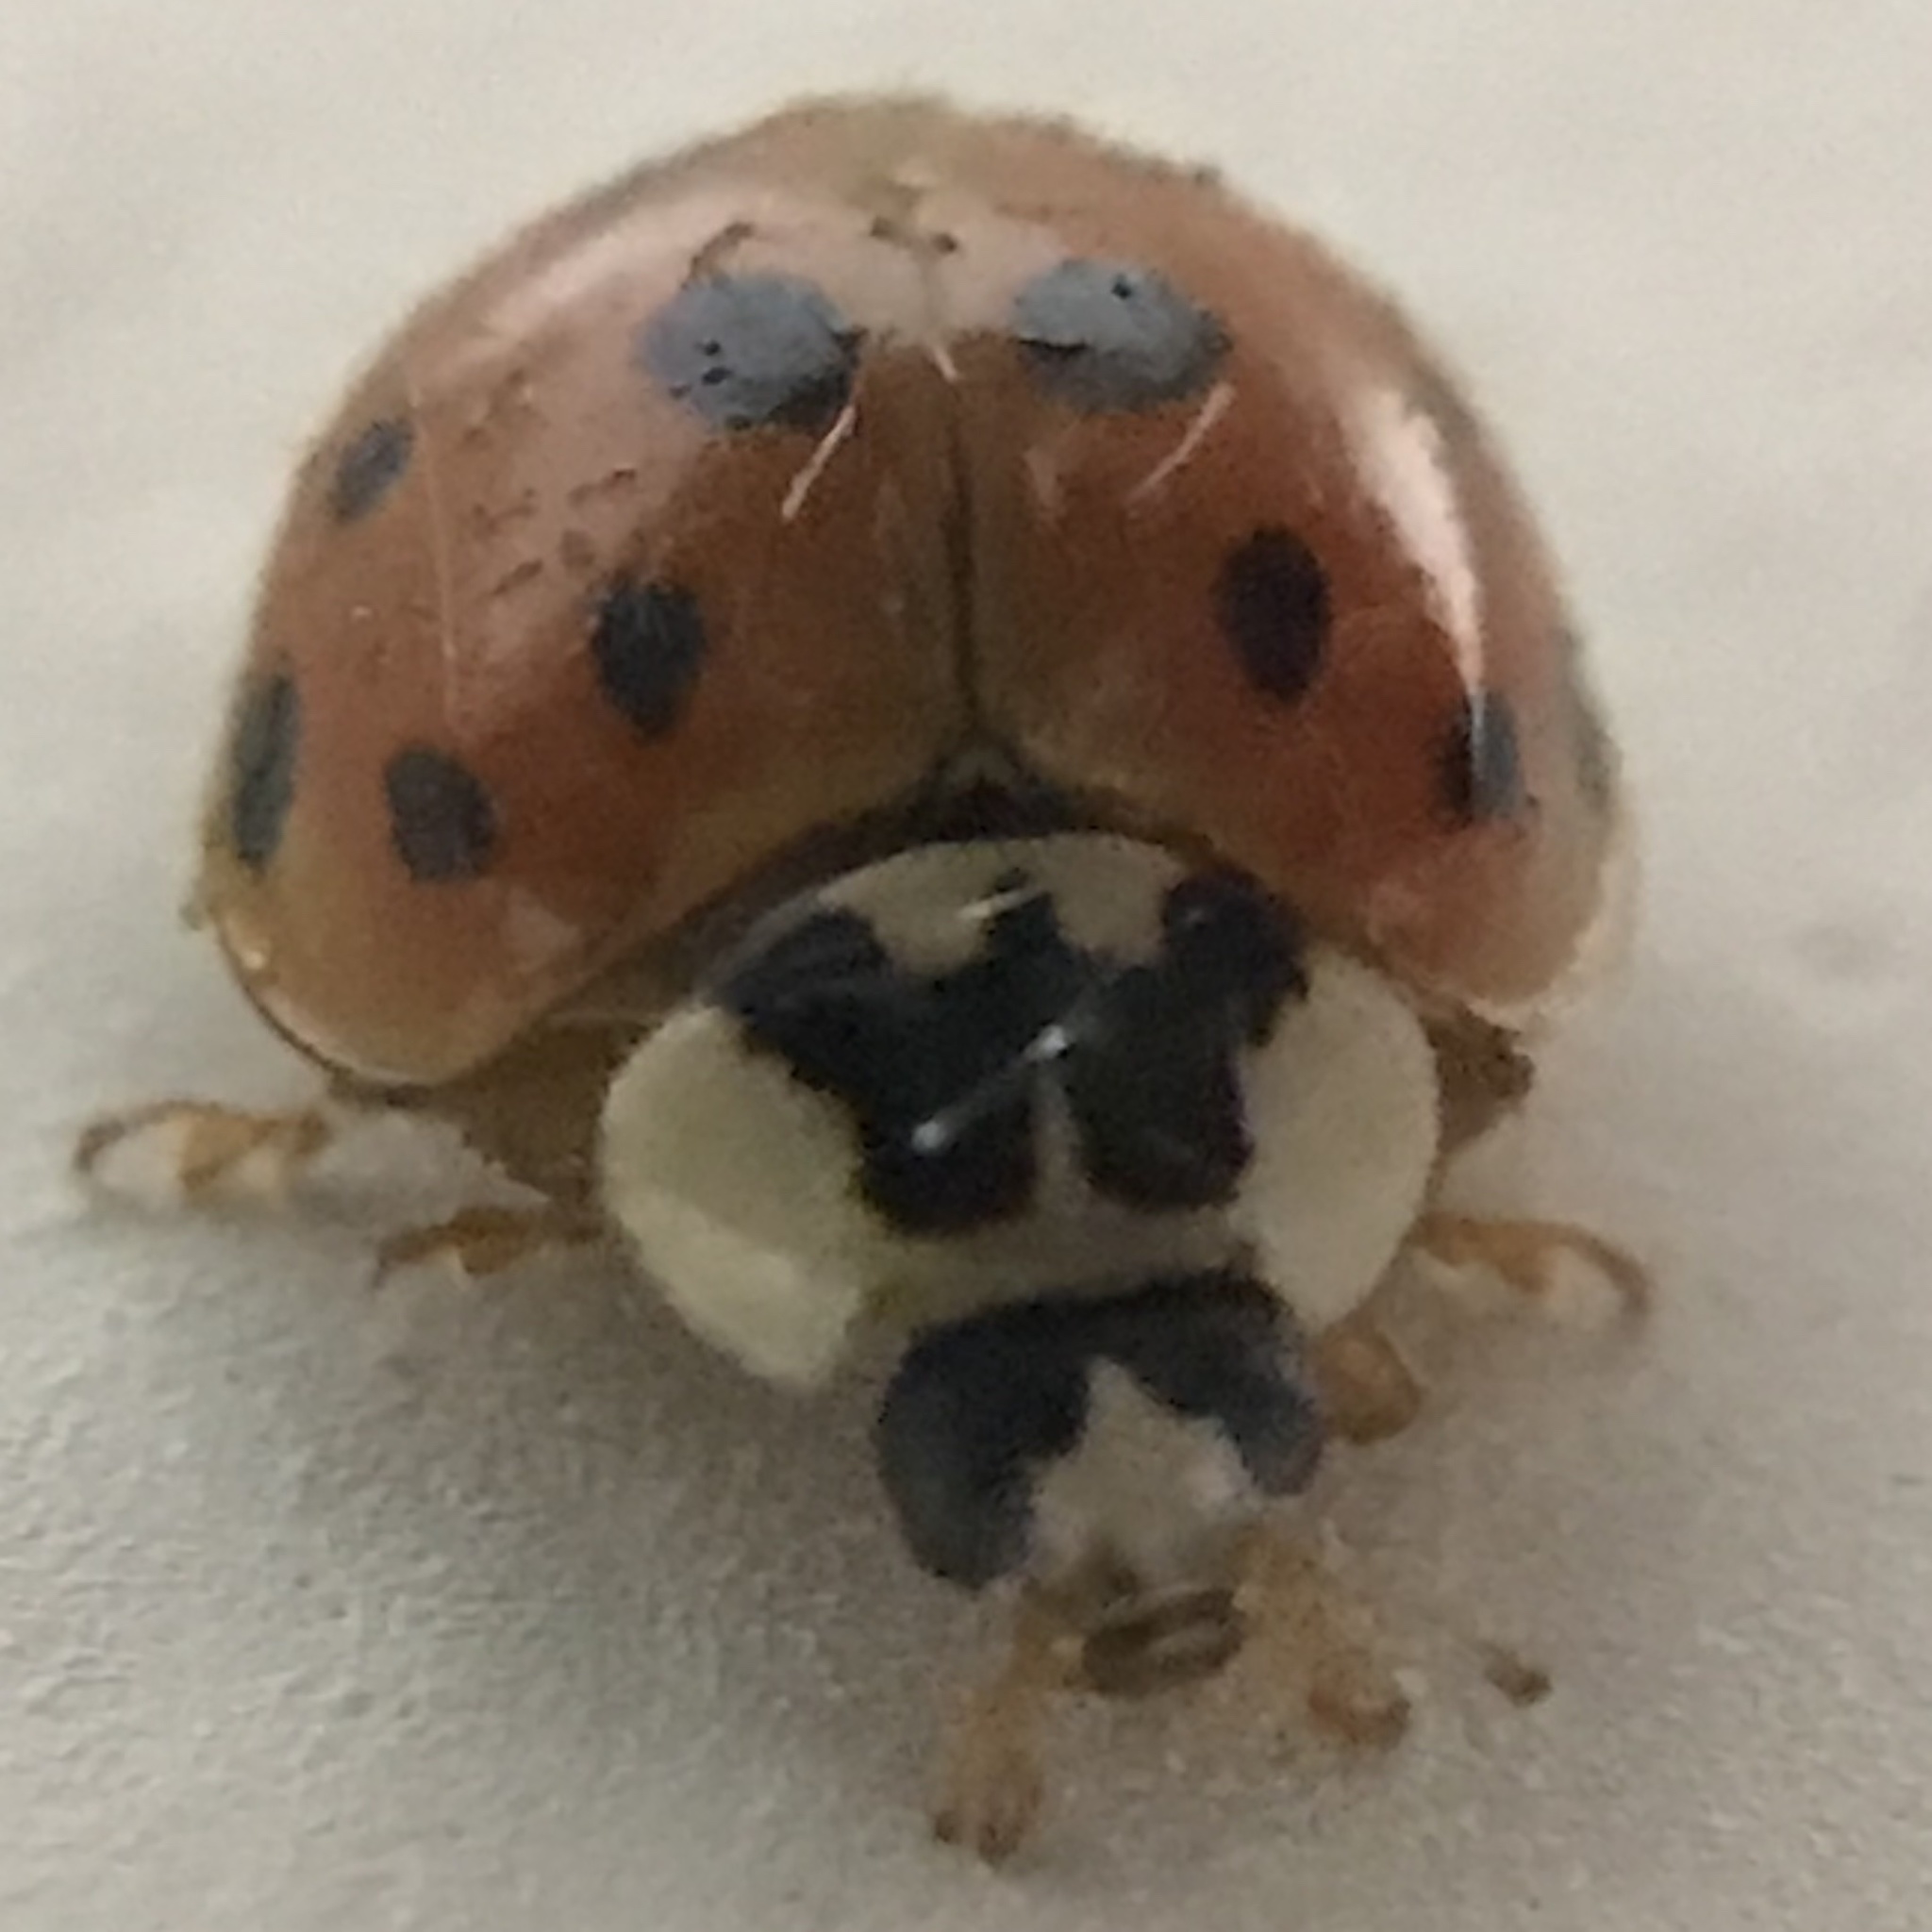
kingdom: Animalia
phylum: Arthropoda
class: Insecta
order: Coleoptera
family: Coccinellidae
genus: Harmonia
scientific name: Harmonia axyridis
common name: Harlequin ladybird
